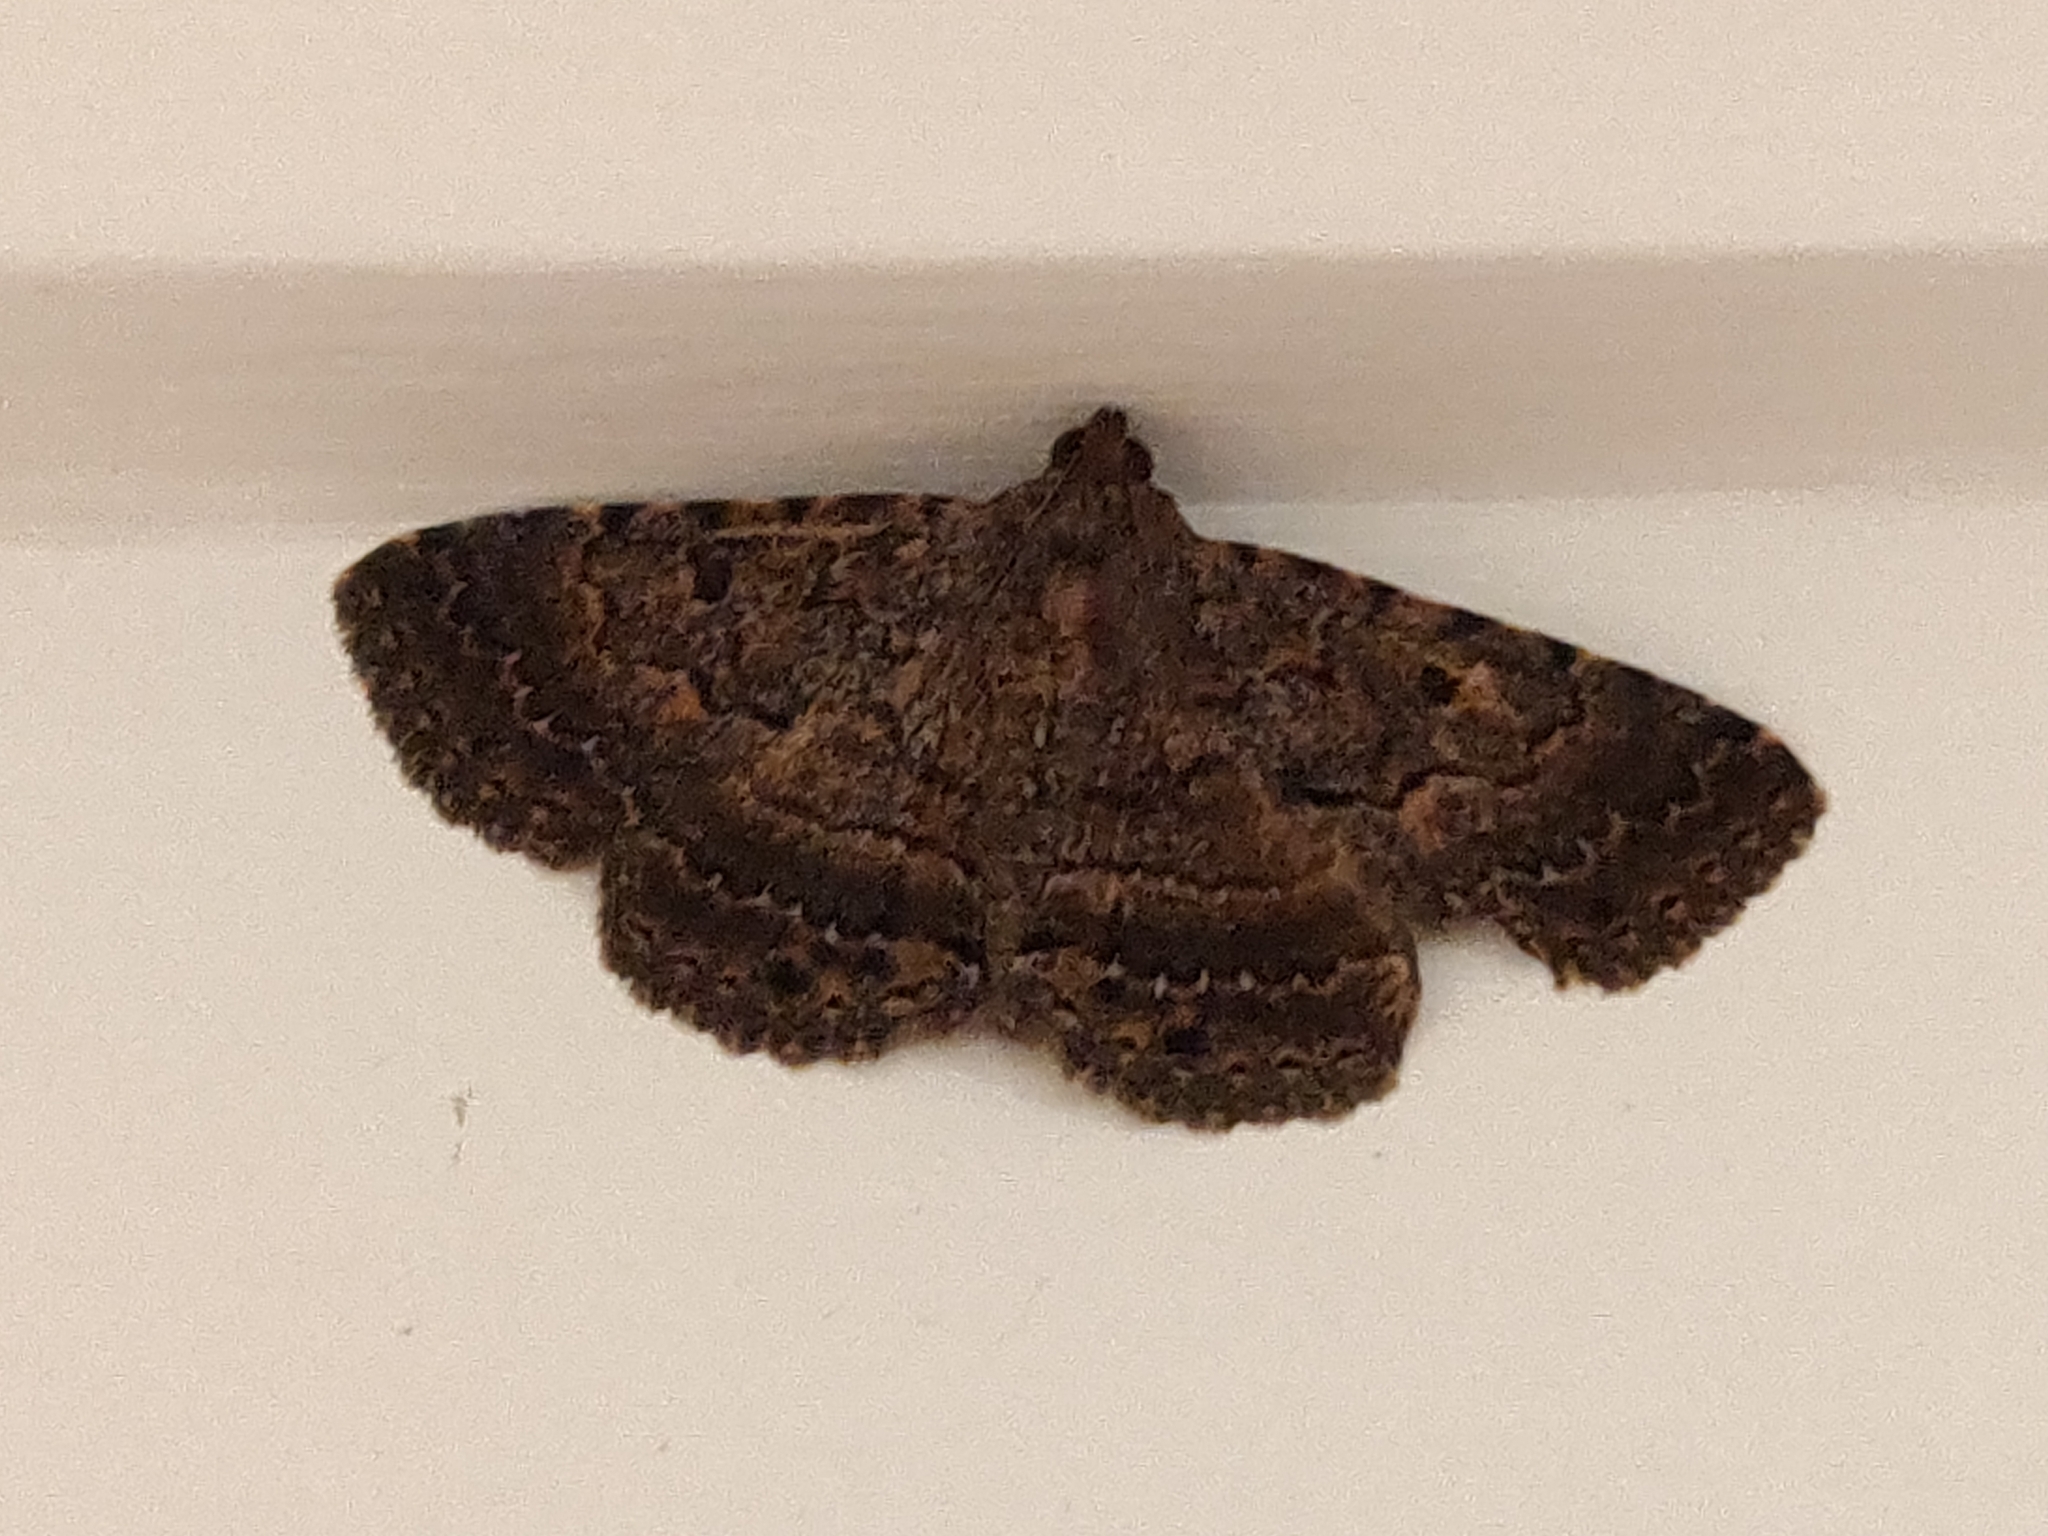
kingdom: Animalia
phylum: Arthropoda
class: Insecta
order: Lepidoptera
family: Erebidae
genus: Diatenes
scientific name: Diatenes aglossoides
